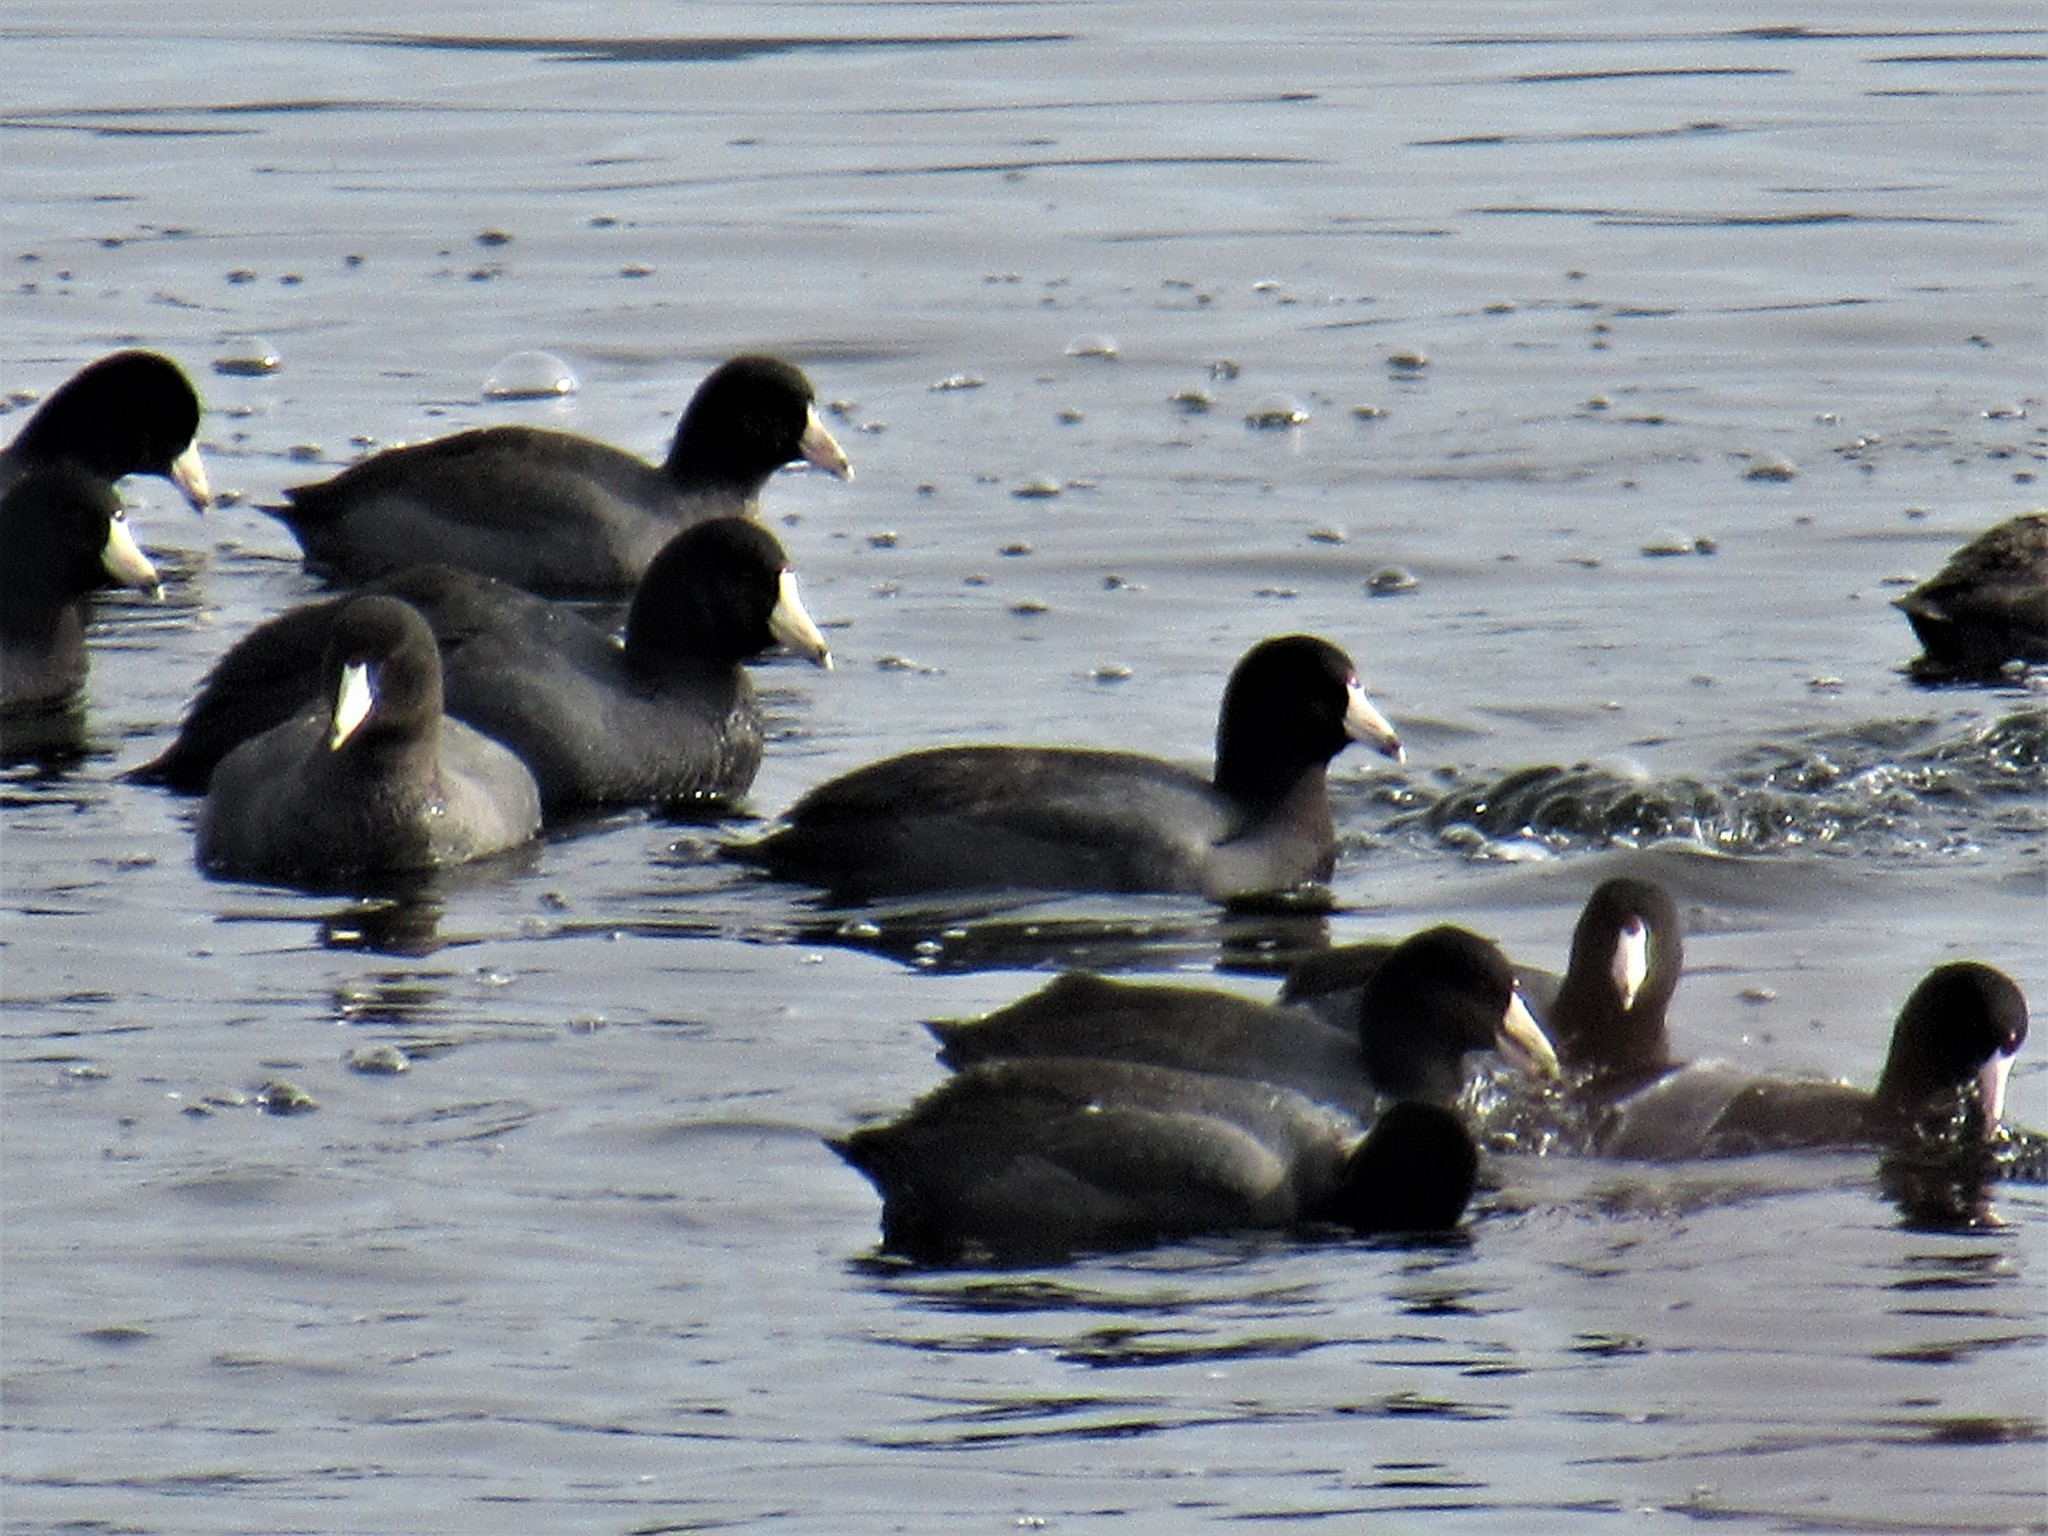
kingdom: Animalia
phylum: Chordata
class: Aves
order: Gruiformes
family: Rallidae
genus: Fulica
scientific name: Fulica americana
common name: American coot
